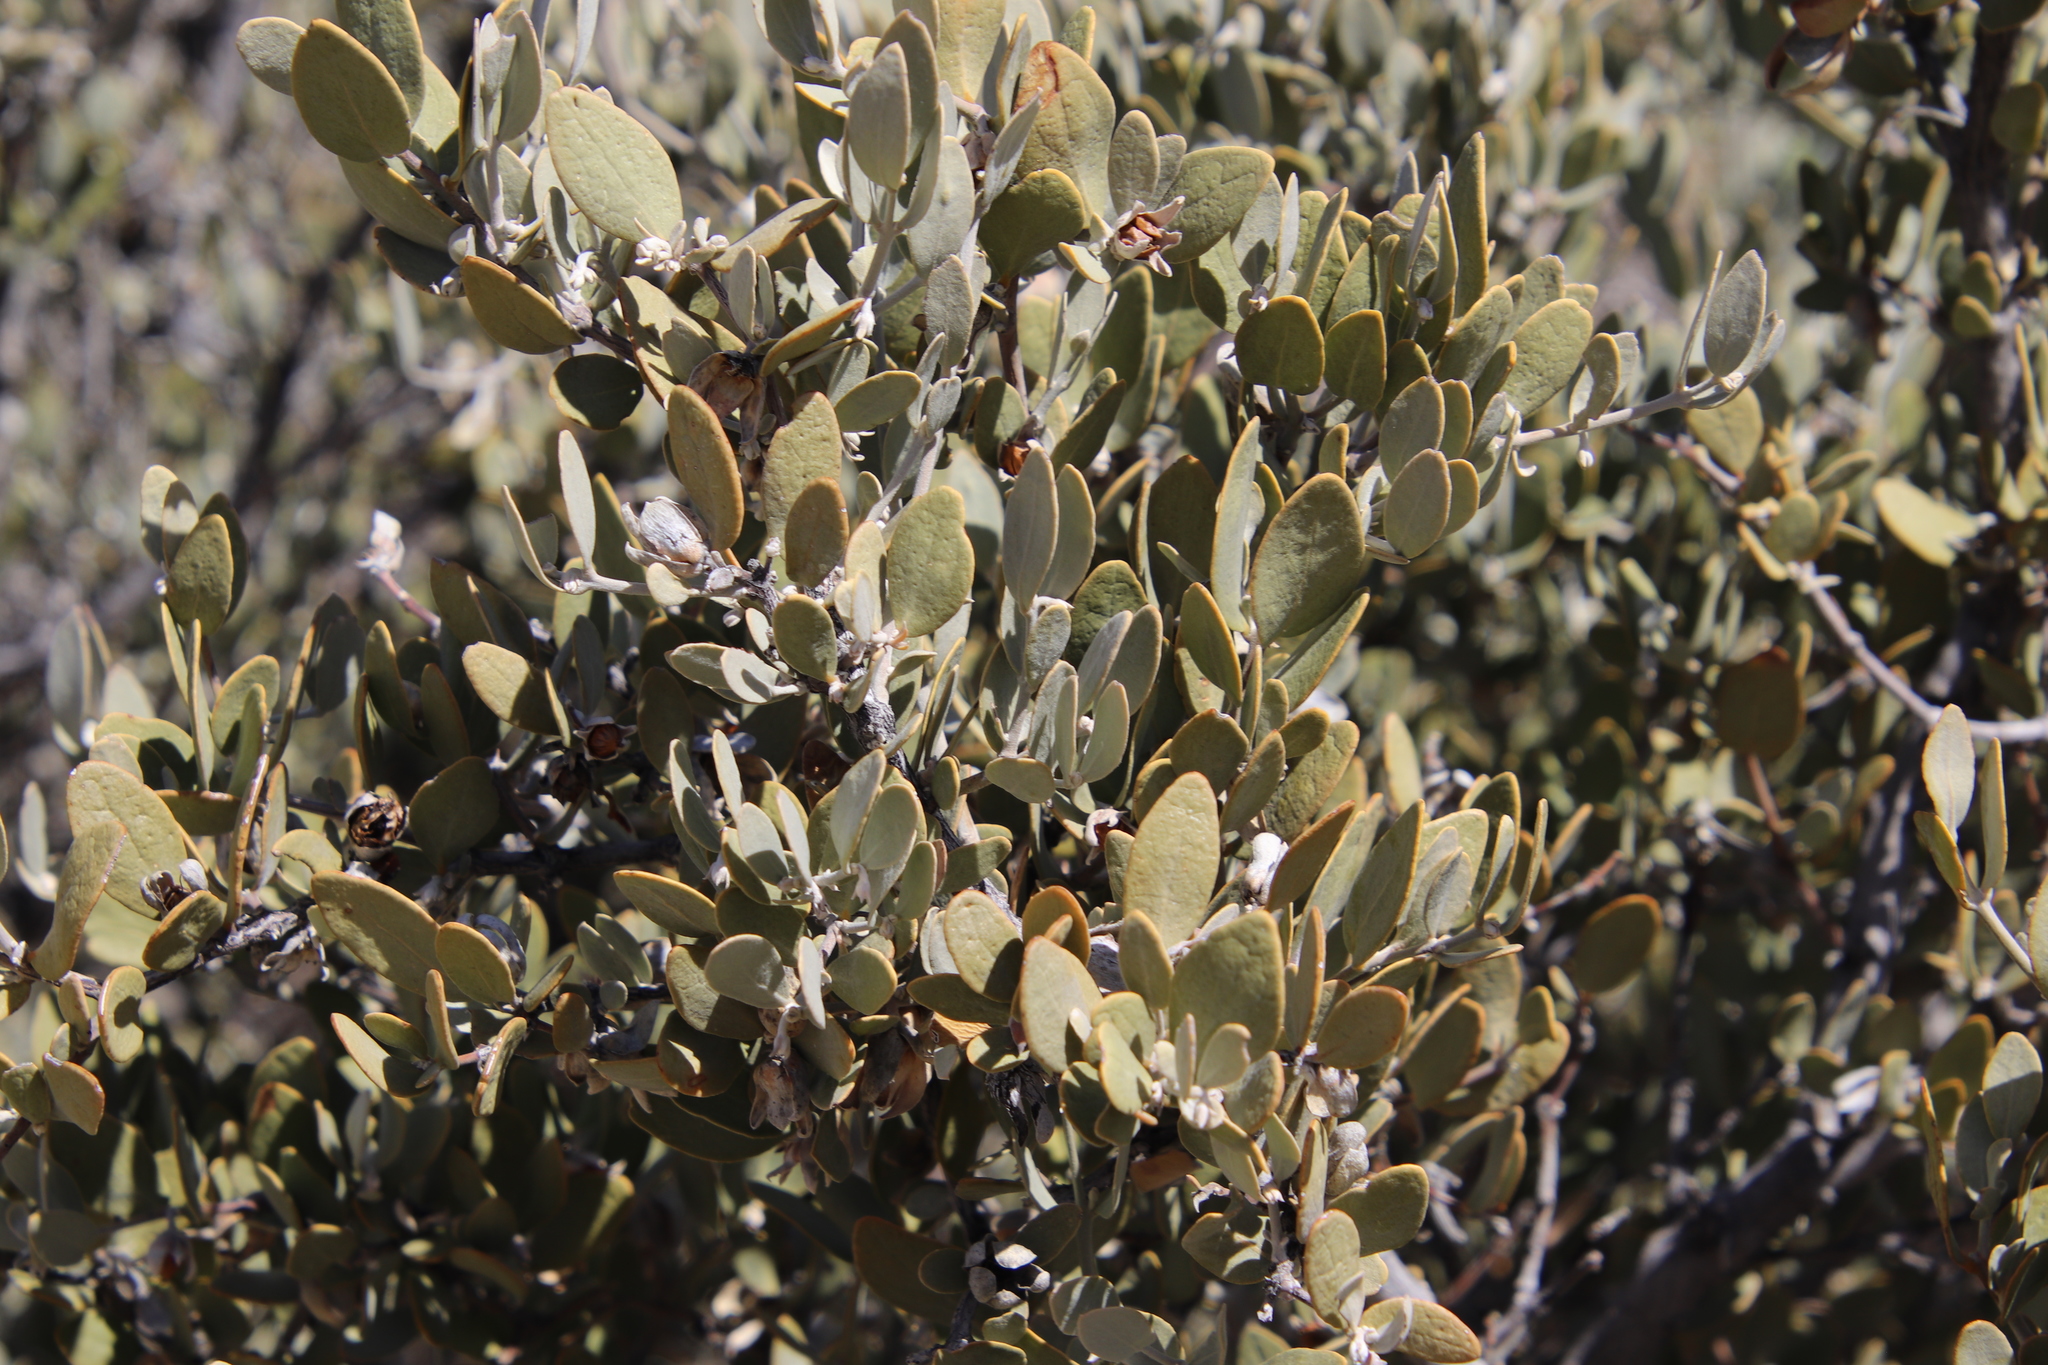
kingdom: Plantae
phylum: Tracheophyta
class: Magnoliopsida
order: Caryophyllales
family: Simmondsiaceae
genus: Simmondsia
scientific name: Simmondsia chinensis
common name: Jojoba
